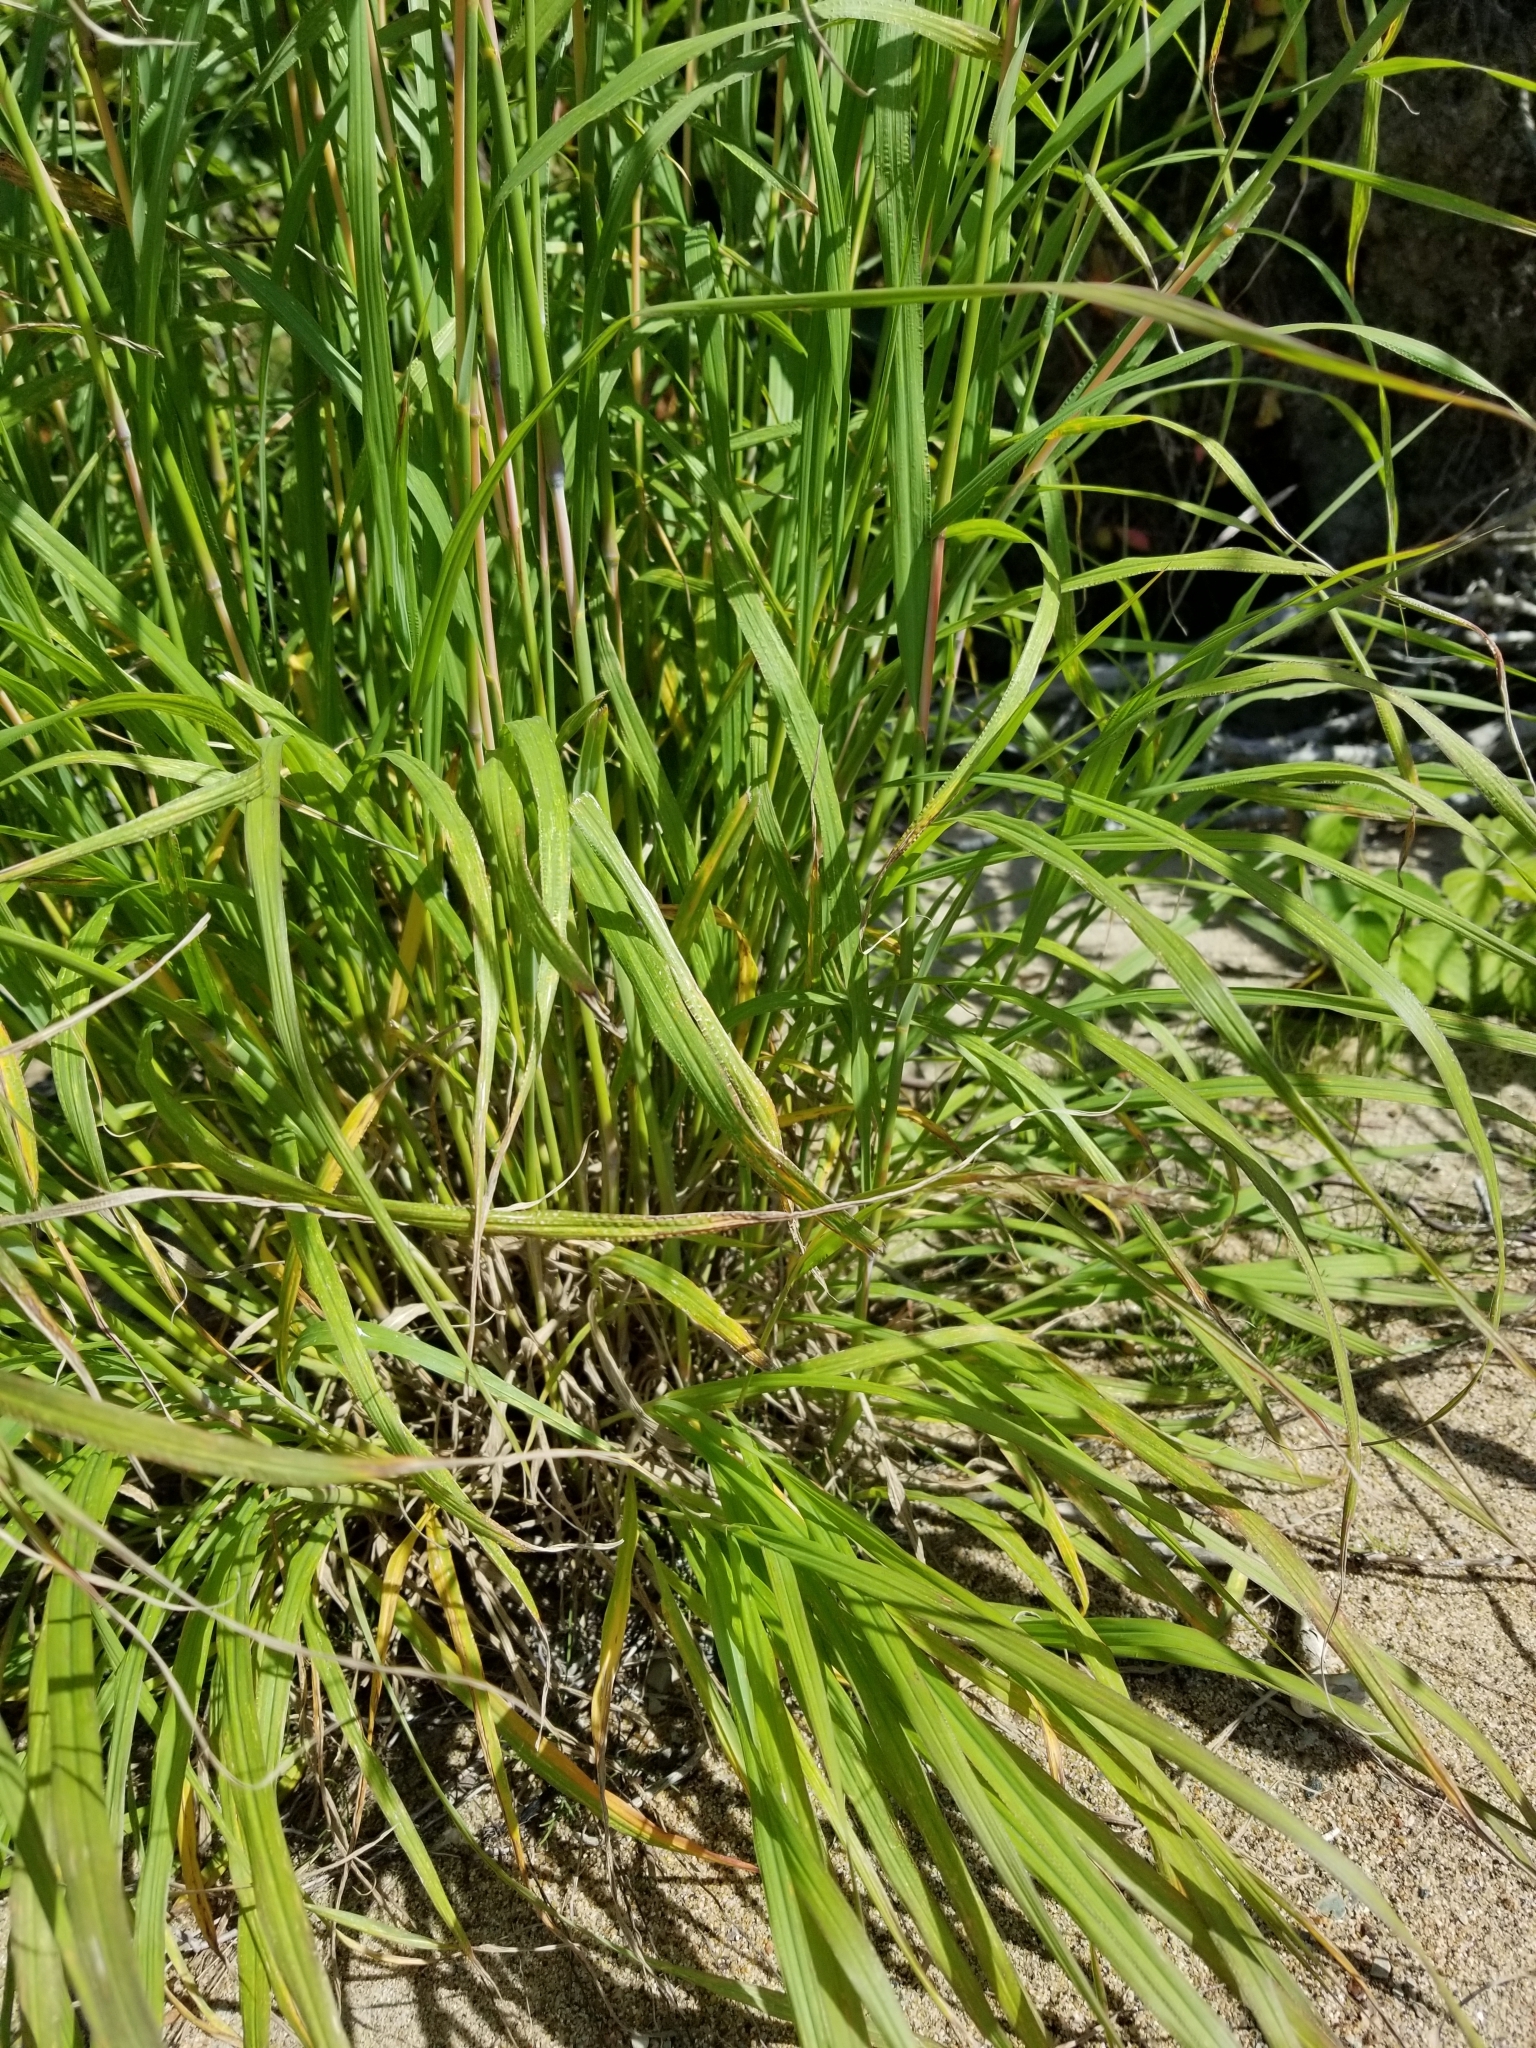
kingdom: Plantae
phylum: Tracheophyta
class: Liliopsida
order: Poales
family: Poaceae
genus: Andropogon
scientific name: Andropogon gerardi
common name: Big bluestem
